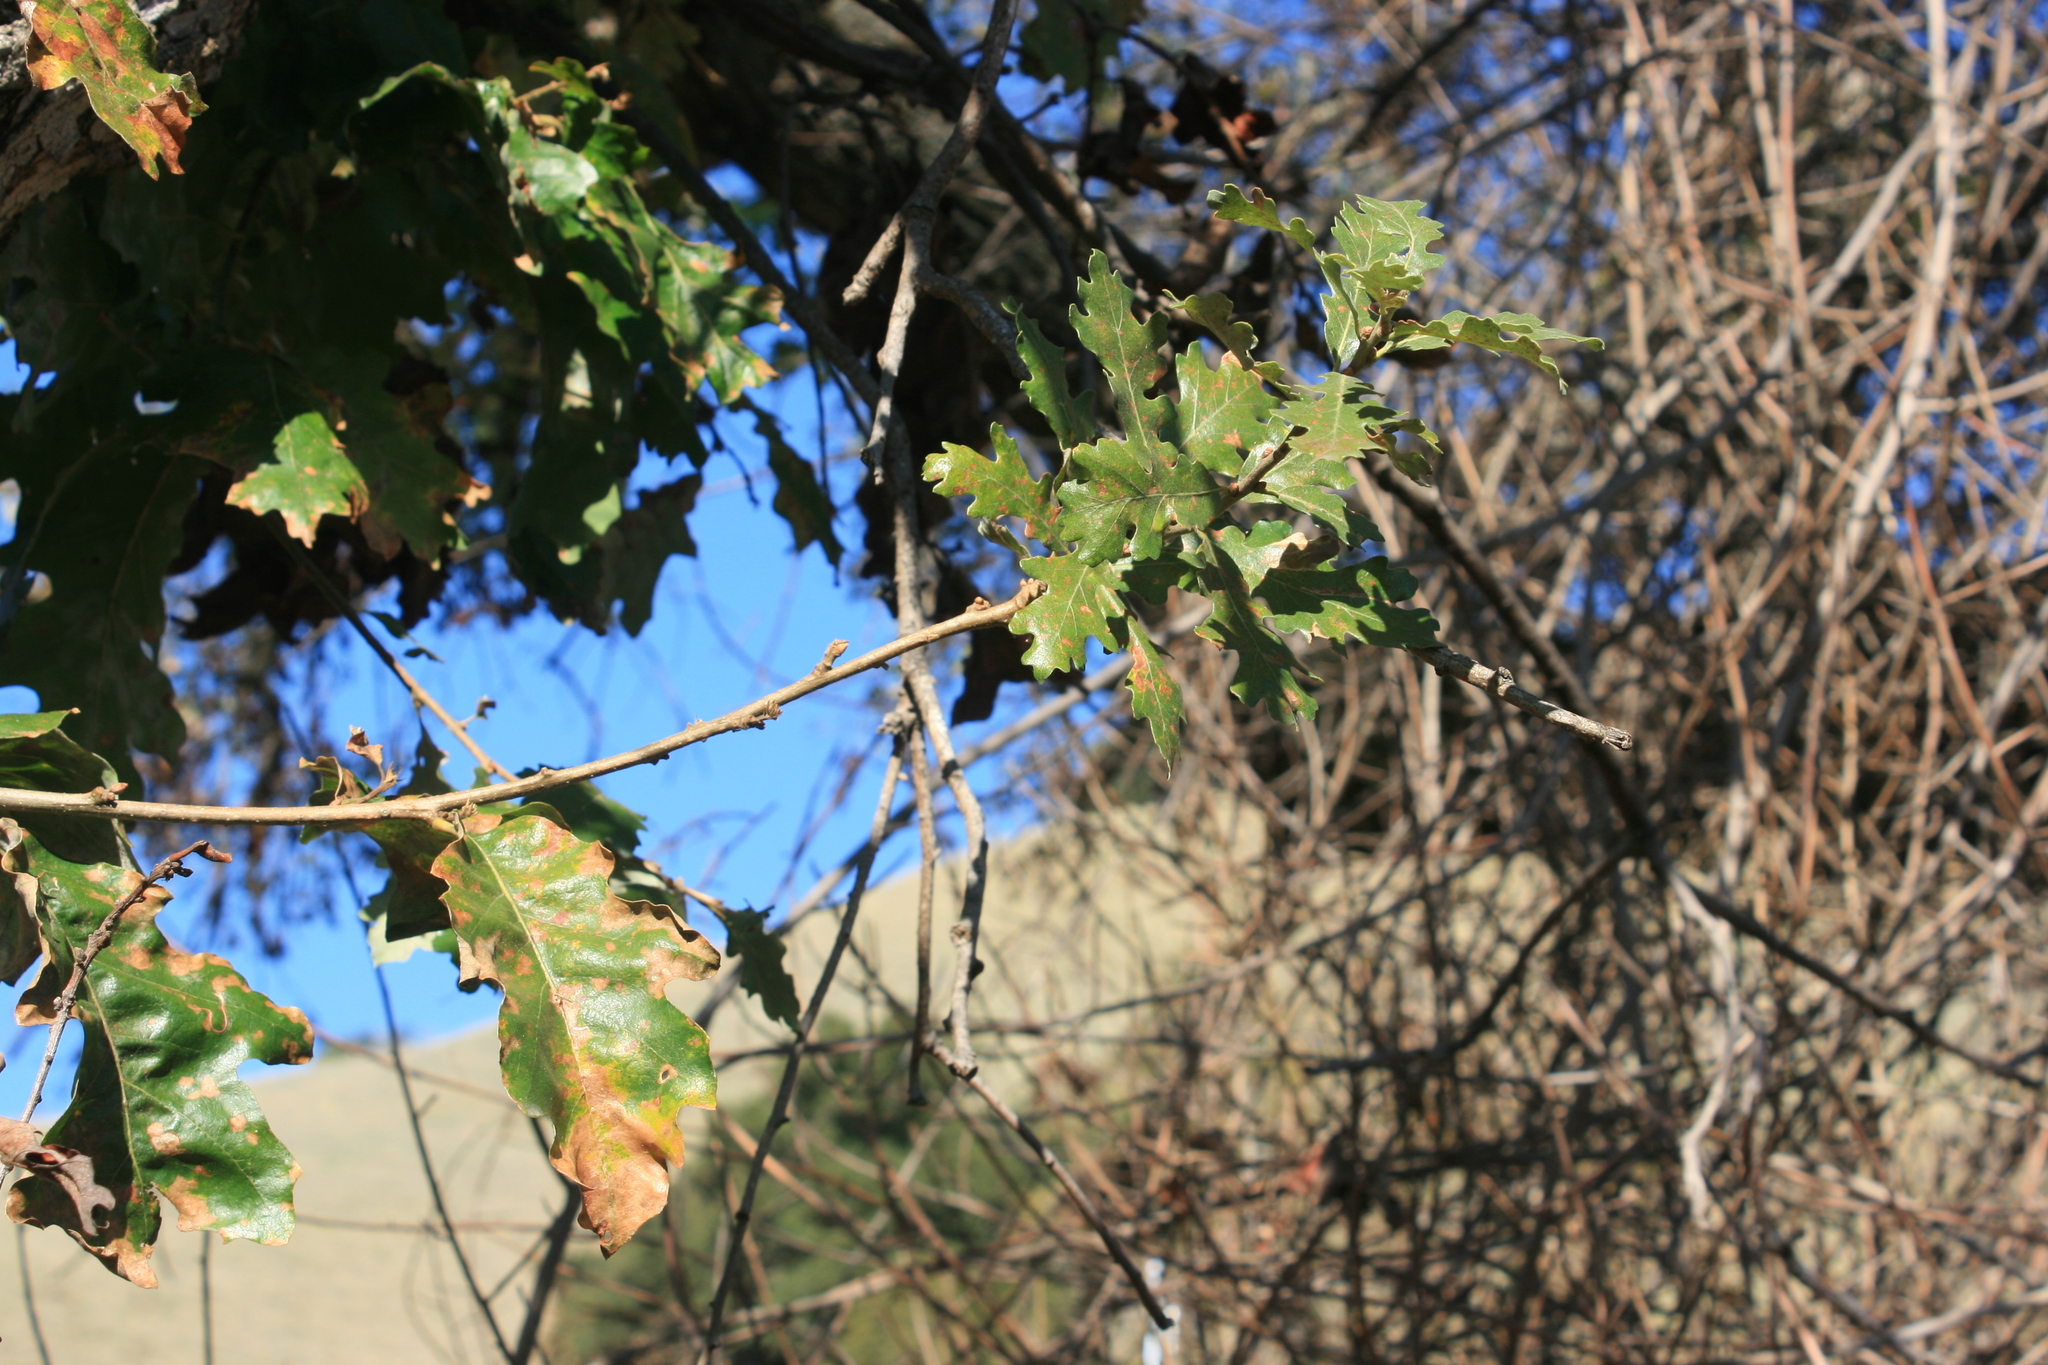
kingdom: Plantae
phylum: Tracheophyta
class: Magnoliopsida
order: Fagales
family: Fagaceae
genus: Quercus
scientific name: Quercus lobata
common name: Valley oak
